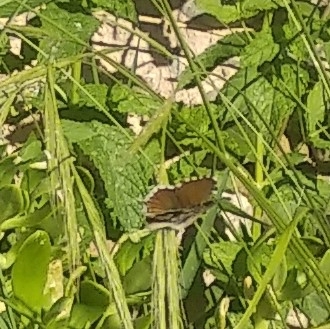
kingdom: Animalia
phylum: Arthropoda
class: Insecta
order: Lepidoptera
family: Lycaenidae
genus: Cacyreus
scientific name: Cacyreus marshalli
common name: Geranium bronze
